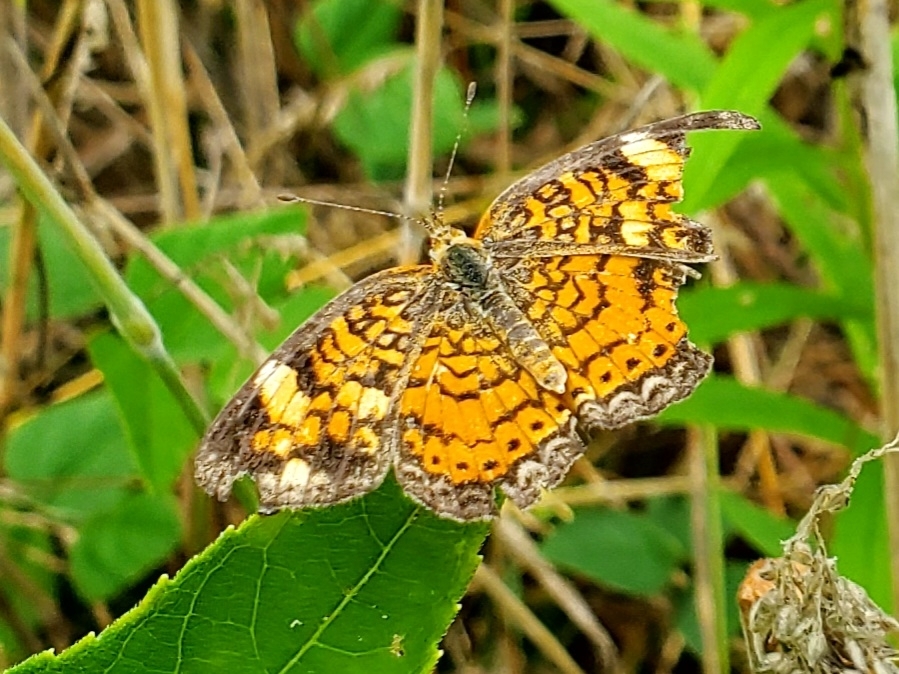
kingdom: Animalia
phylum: Arthropoda
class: Insecta
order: Lepidoptera
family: Nymphalidae
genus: Phyciodes
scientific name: Phyciodes tharos
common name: Pearl crescent
